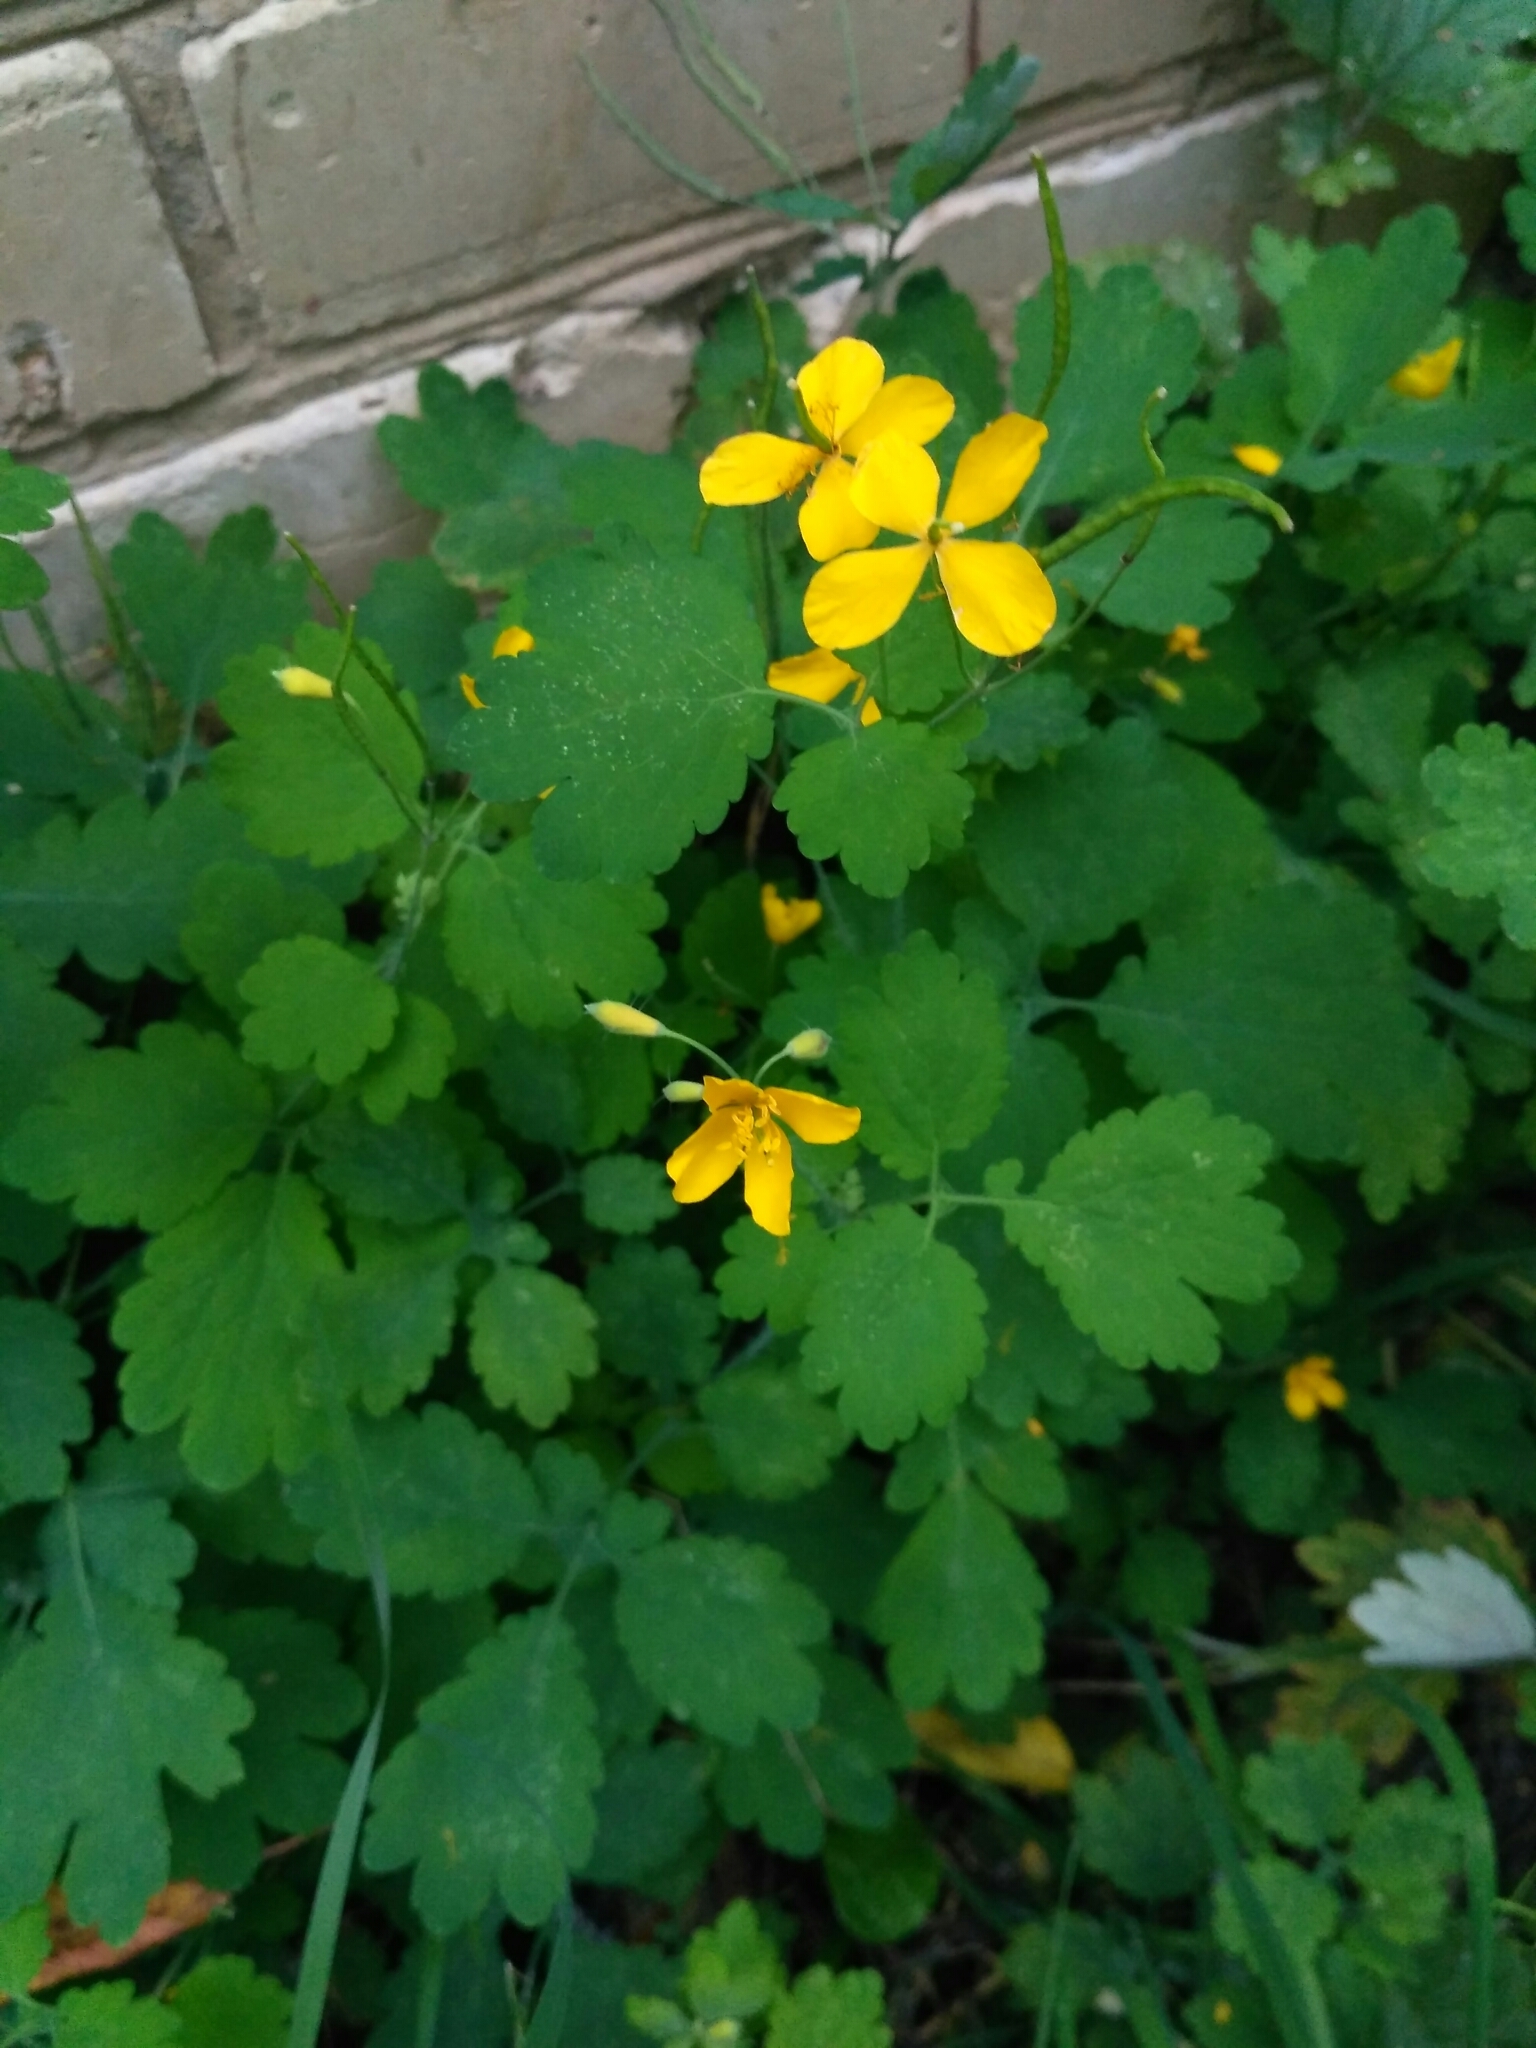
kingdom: Plantae
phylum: Tracheophyta
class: Magnoliopsida
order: Ranunculales
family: Papaveraceae
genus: Chelidonium
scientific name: Chelidonium majus
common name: Greater celandine
